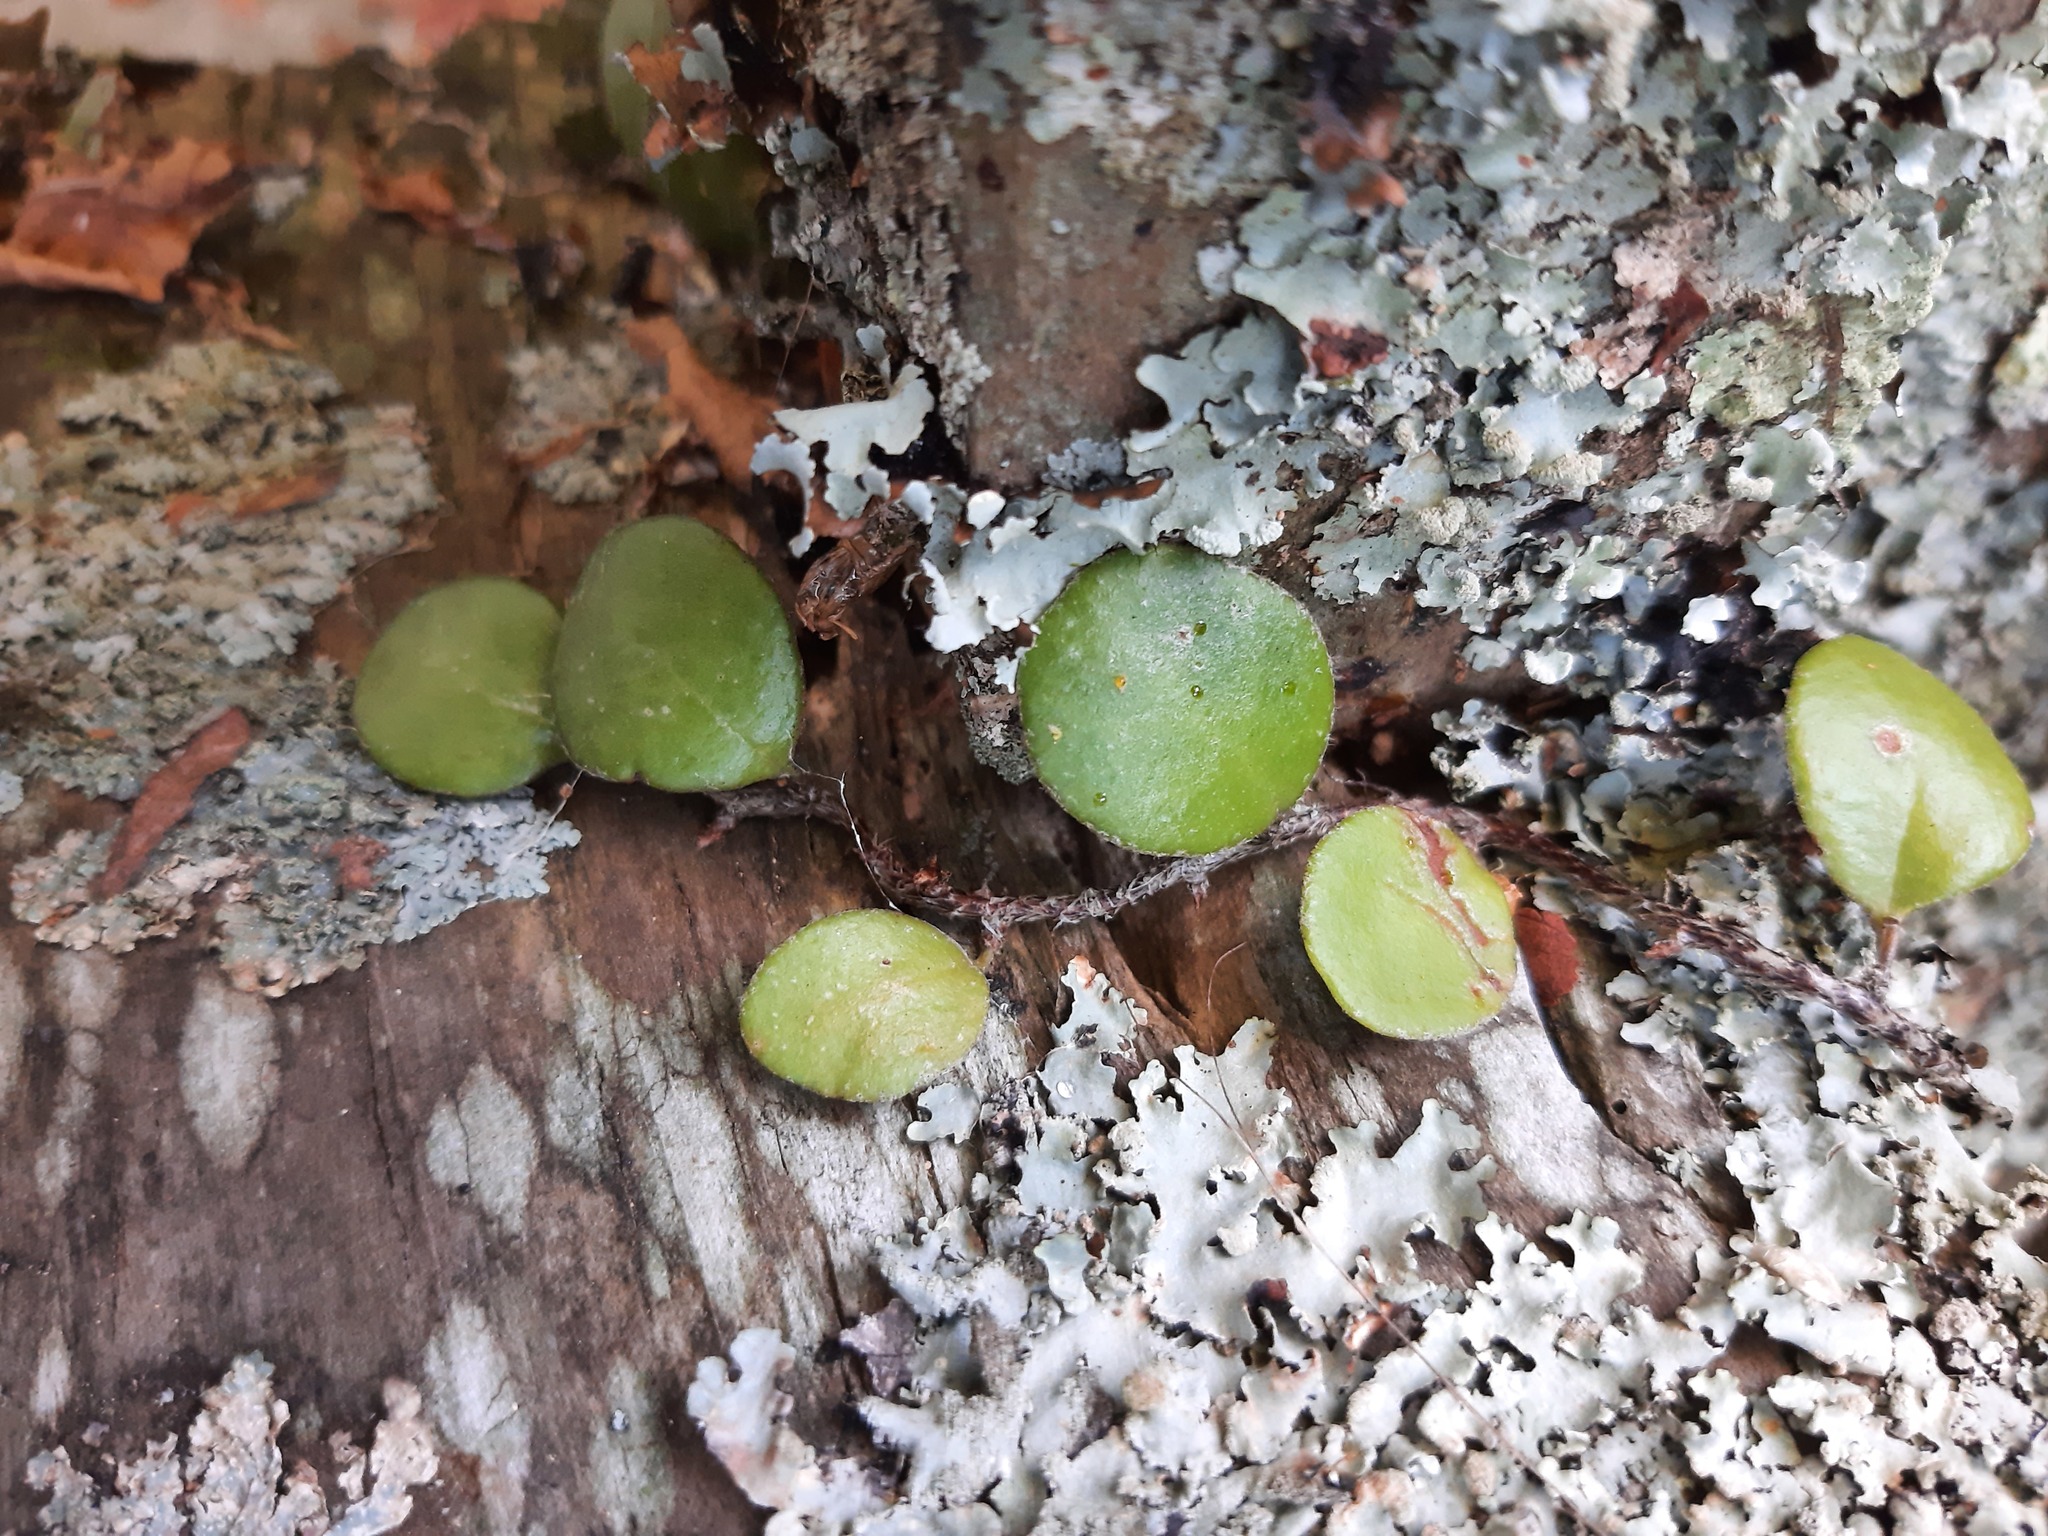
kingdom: Plantae
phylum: Tracheophyta
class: Polypodiopsida
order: Polypodiales
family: Polypodiaceae
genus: Pyrrosia
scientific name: Pyrrosia eleagnifolia
